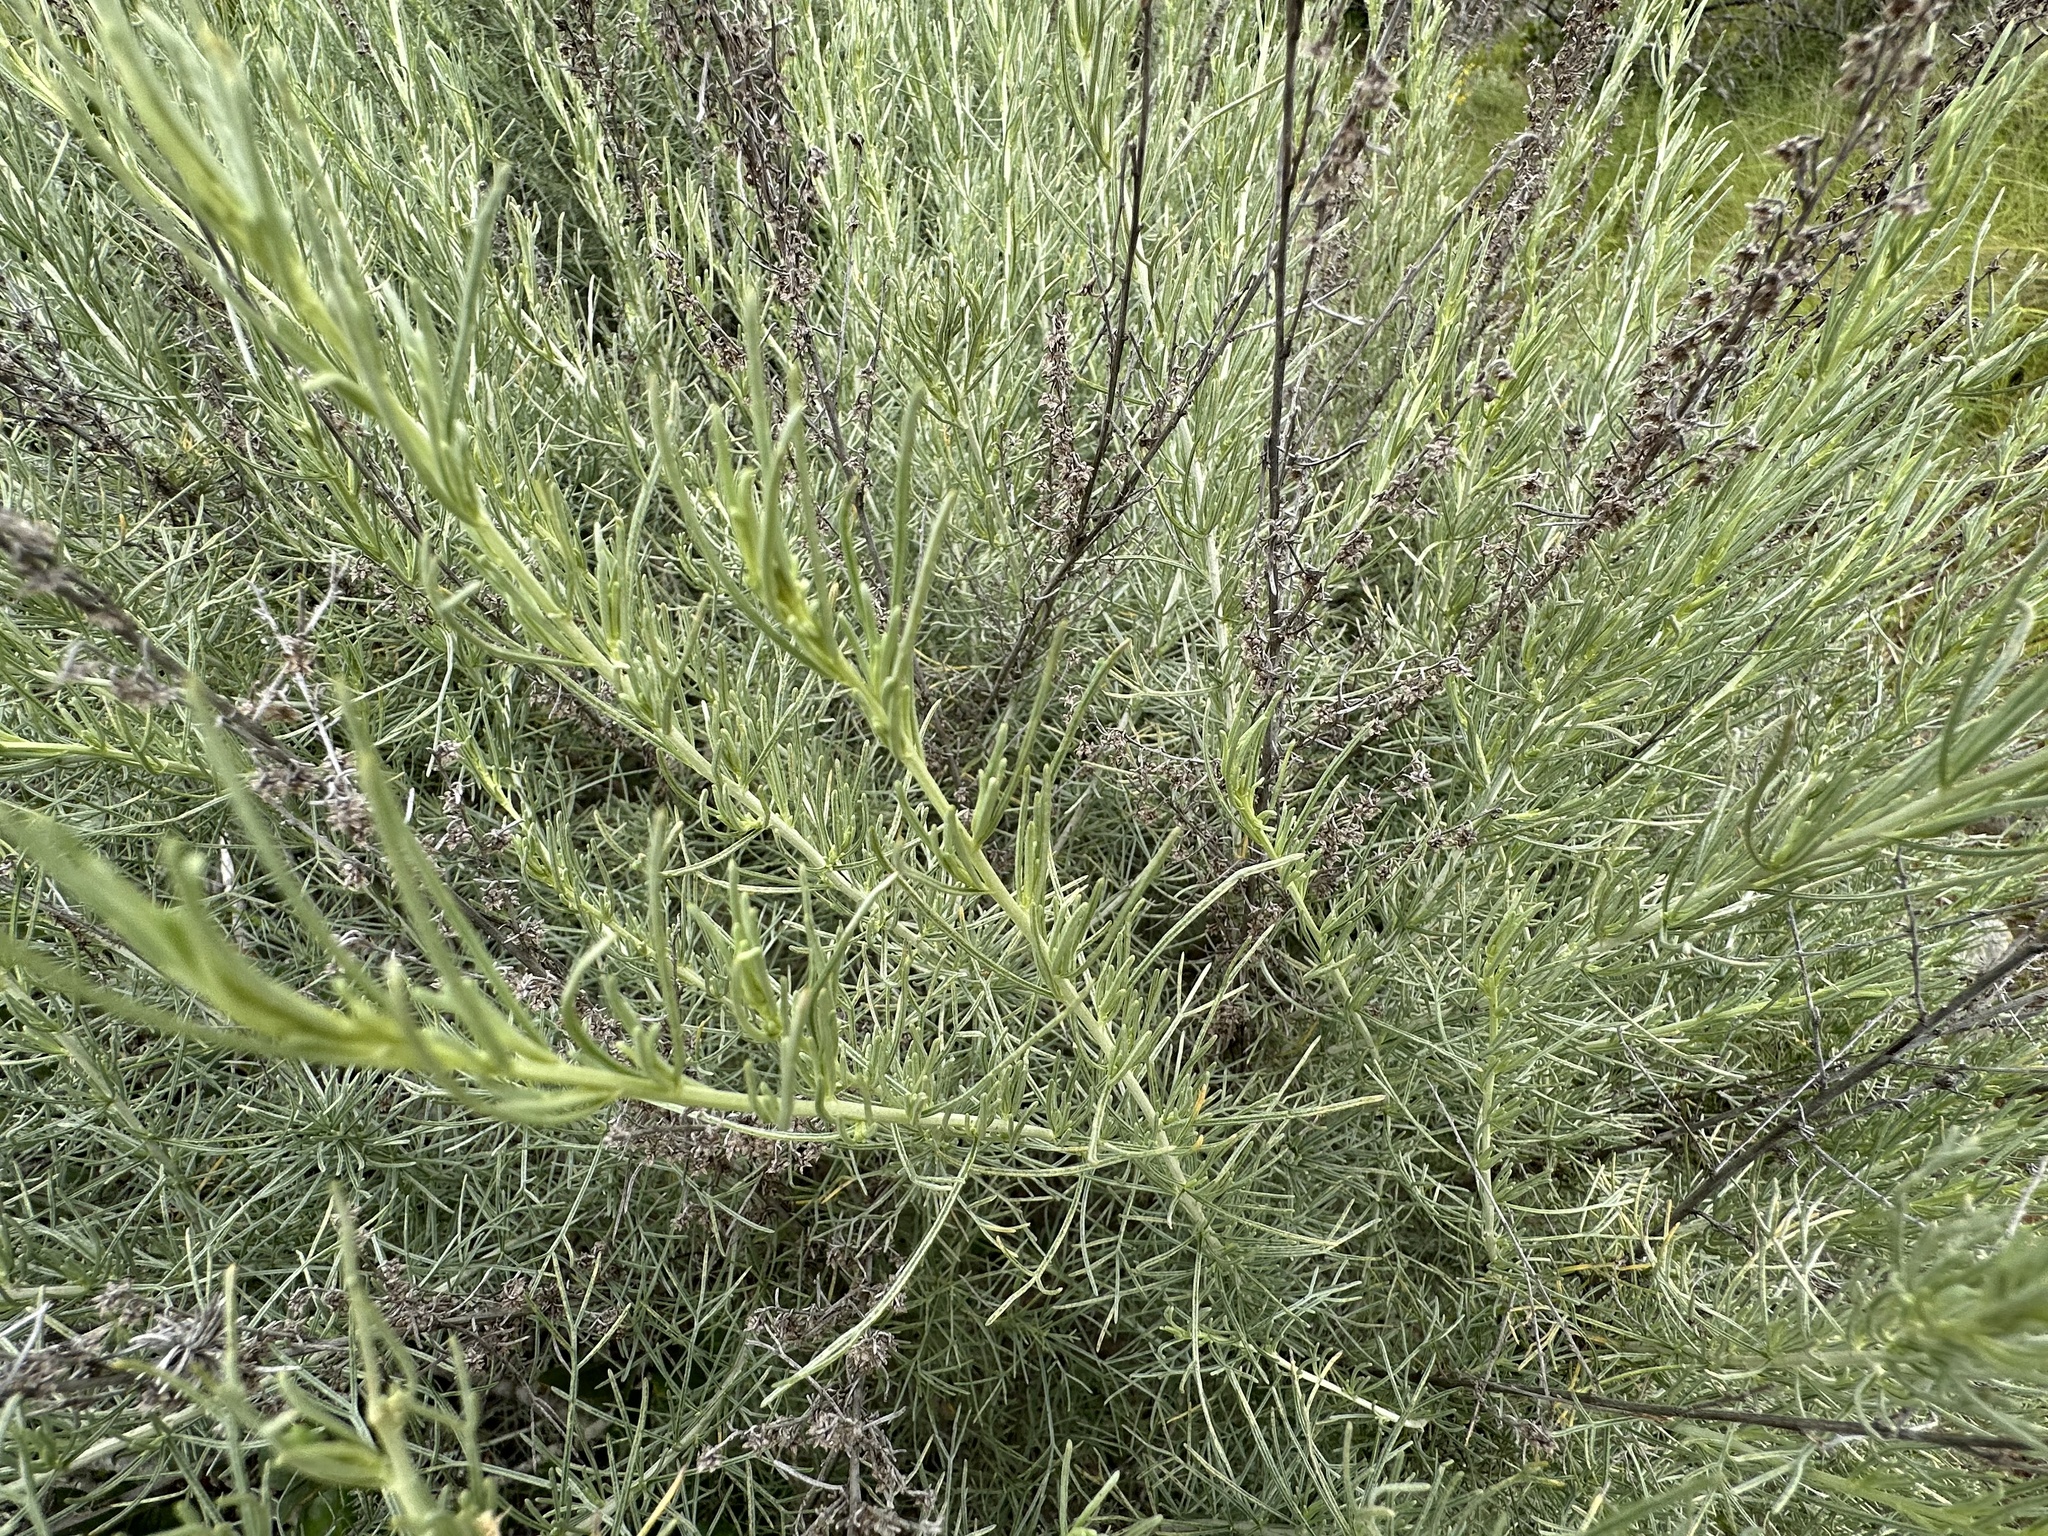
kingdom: Plantae
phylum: Tracheophyta
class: Magnoliopsida
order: Asterales
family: Asteraceae
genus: Artemisia
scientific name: Artemisia californica
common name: California sagebrush
